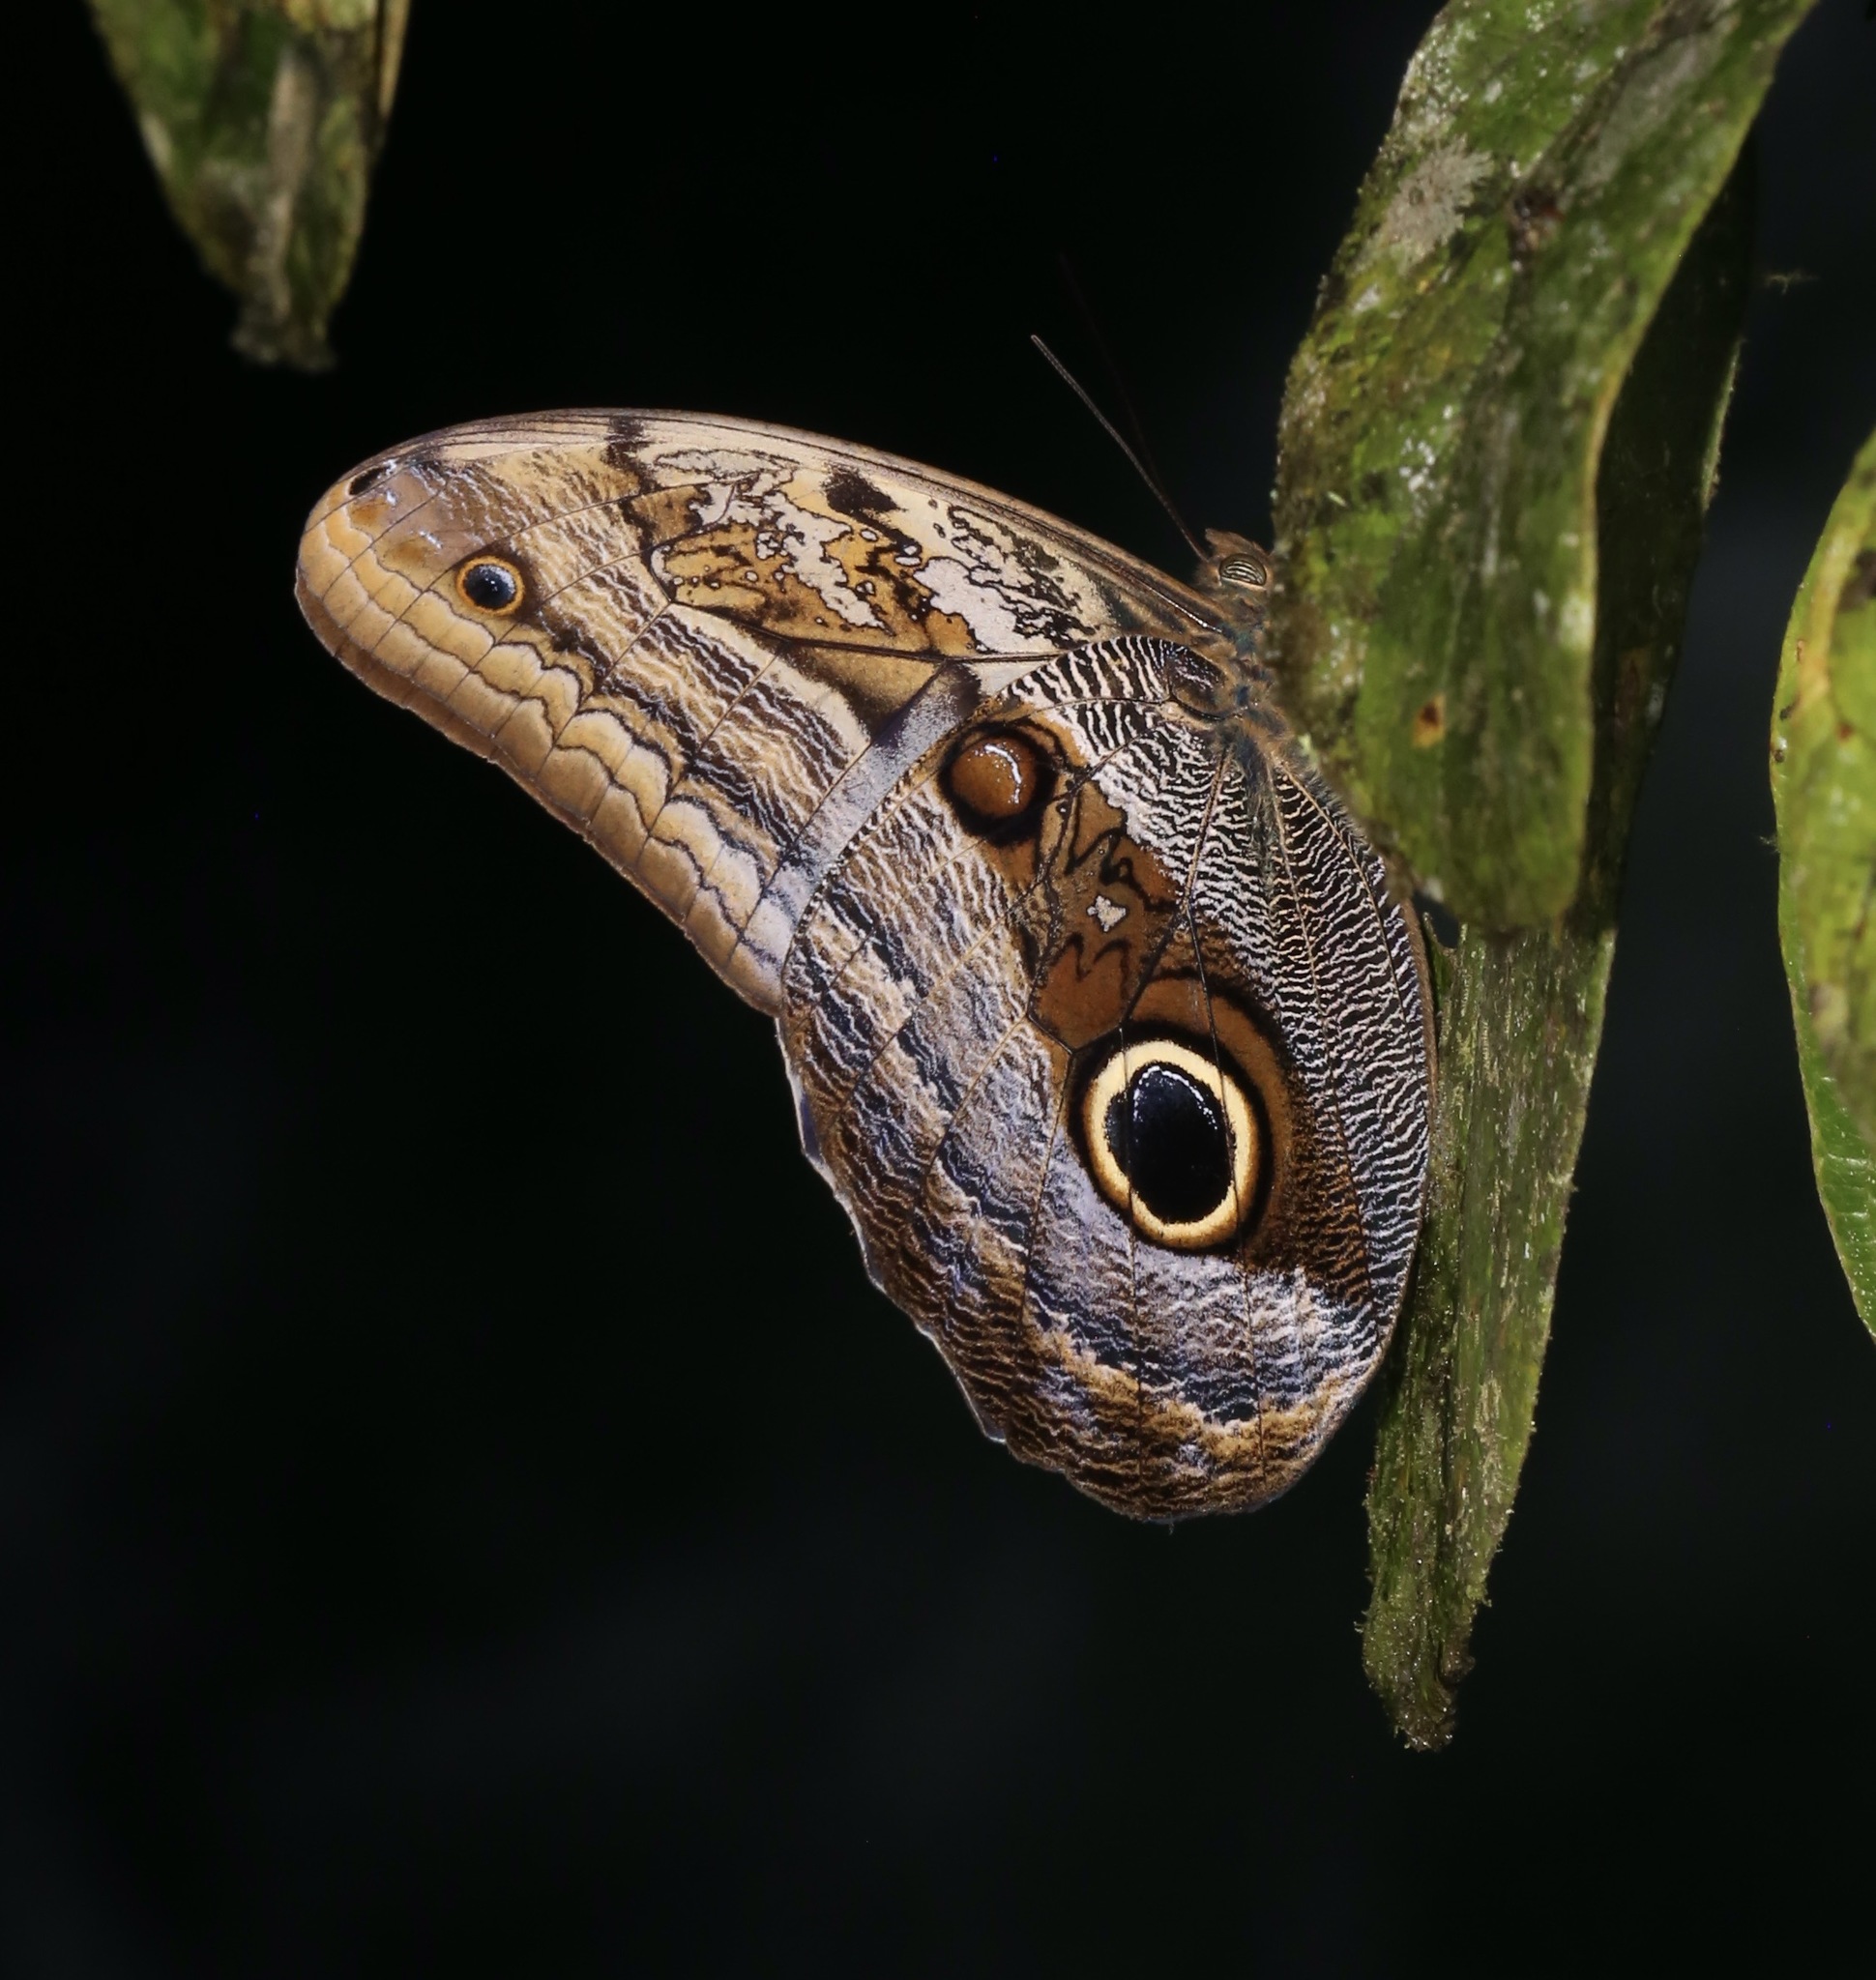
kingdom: Animalia
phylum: Arthropoda
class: Insecta
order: Lepidoptera
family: Nymphalidae
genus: Caligo
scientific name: Caligo zeuxippus
